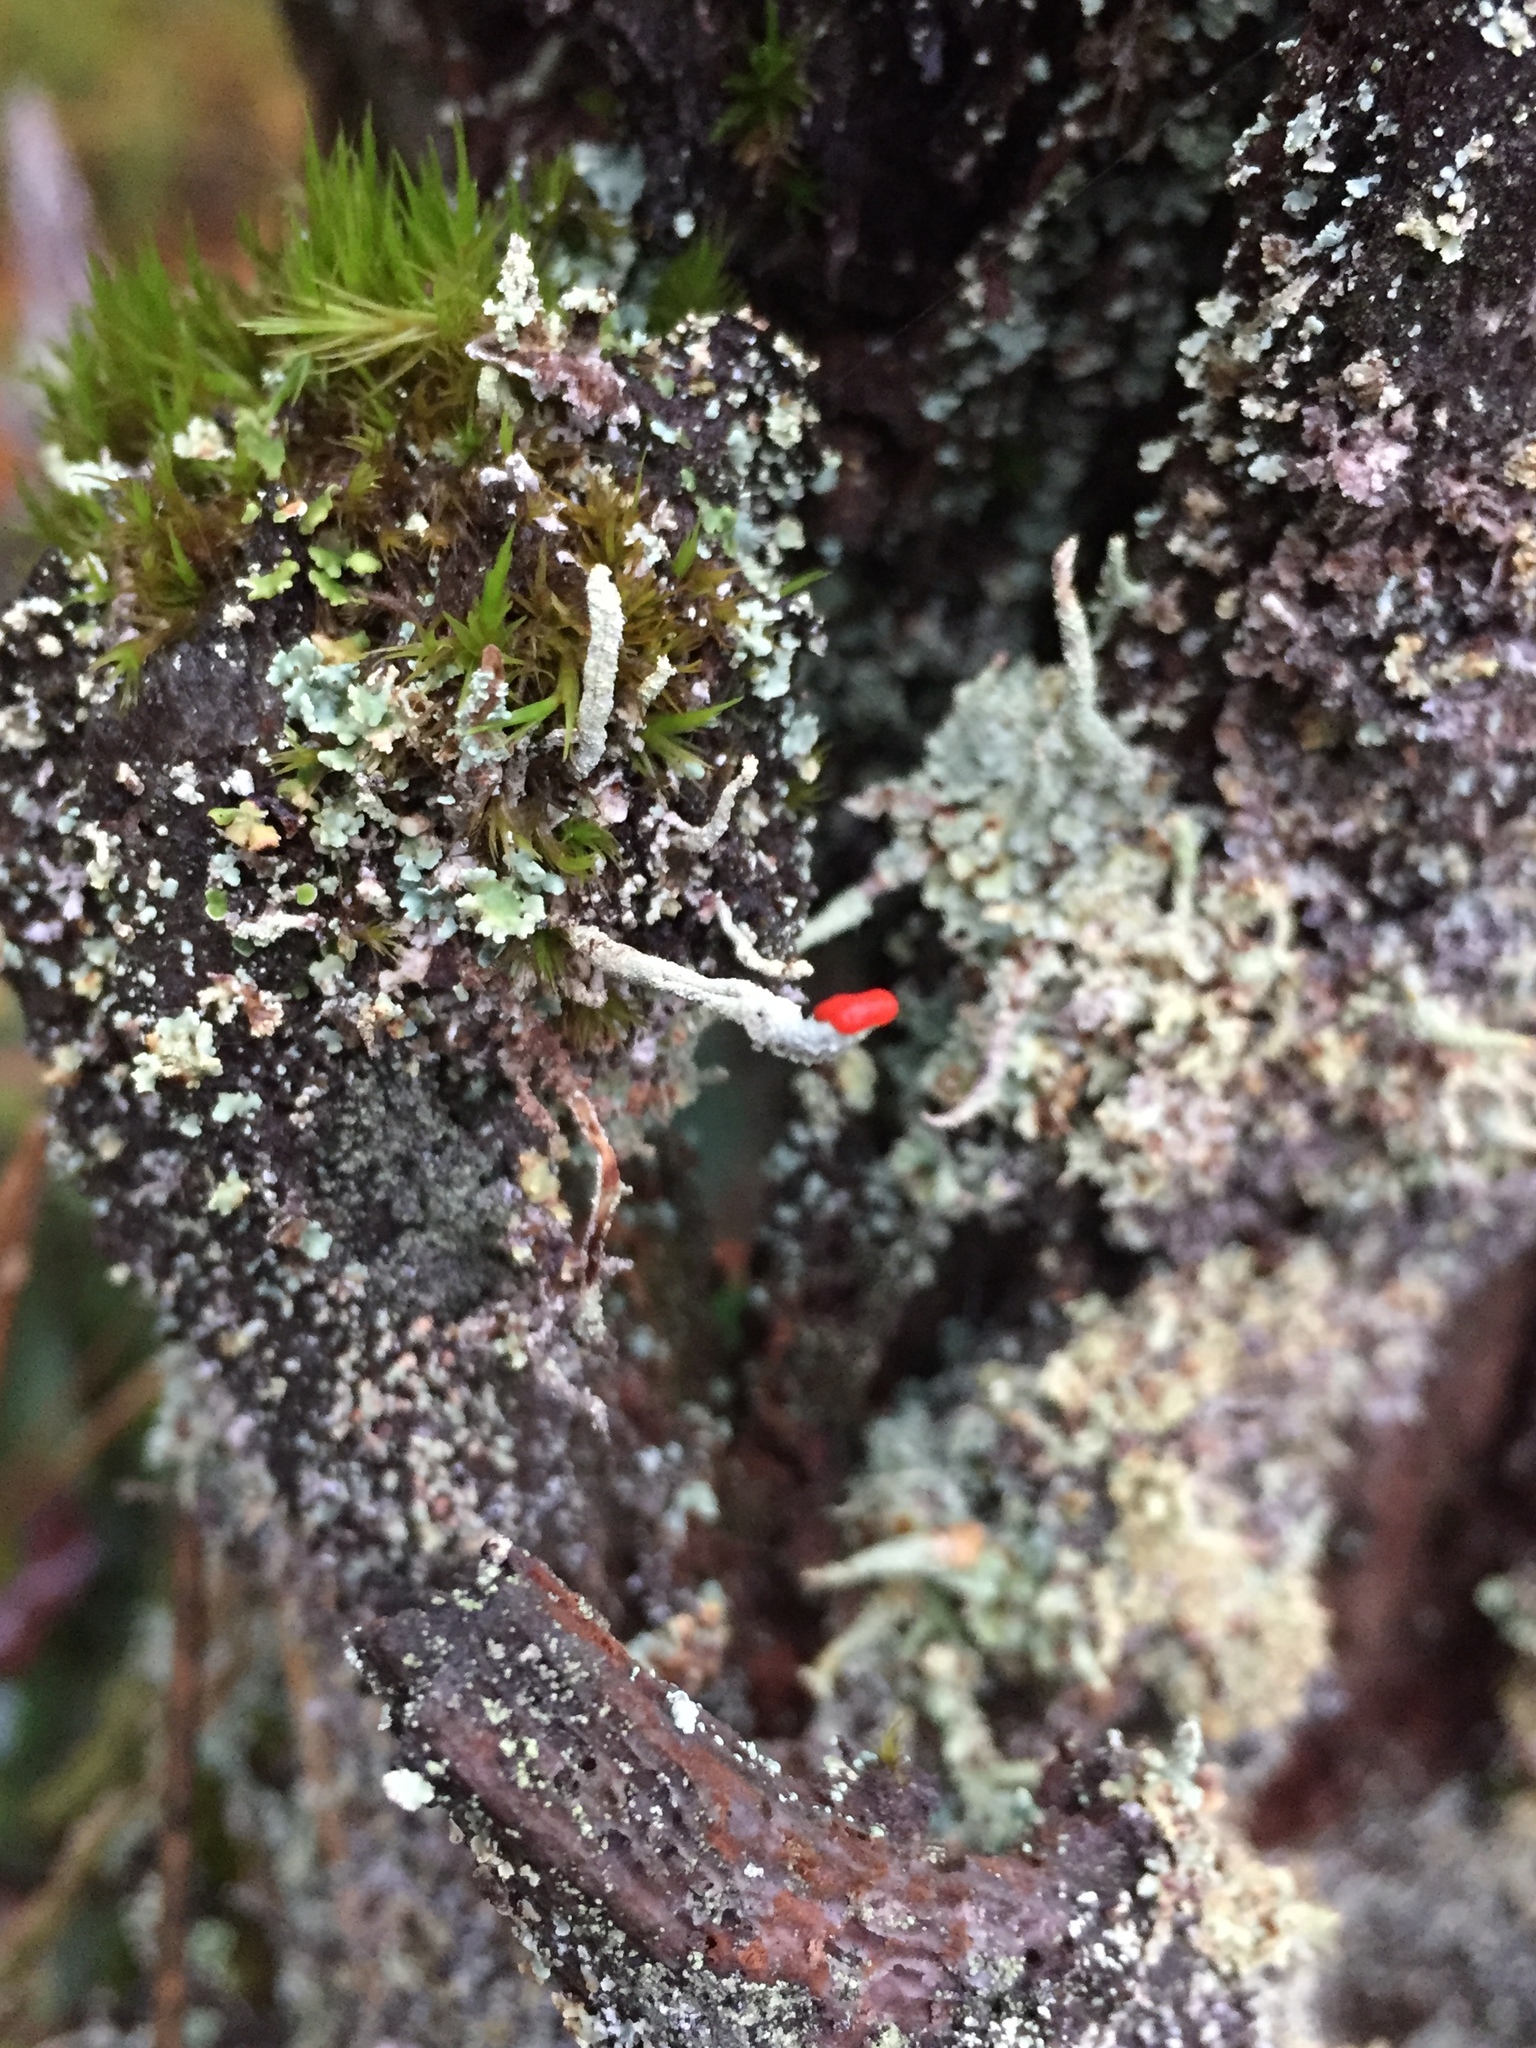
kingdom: Fungi
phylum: Ascomycota
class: Lecanoromycetes
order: Lecanorales
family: Cladoniaceae
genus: Cladonia
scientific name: Cladonia macilenta
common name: Lipstick powderhorn
